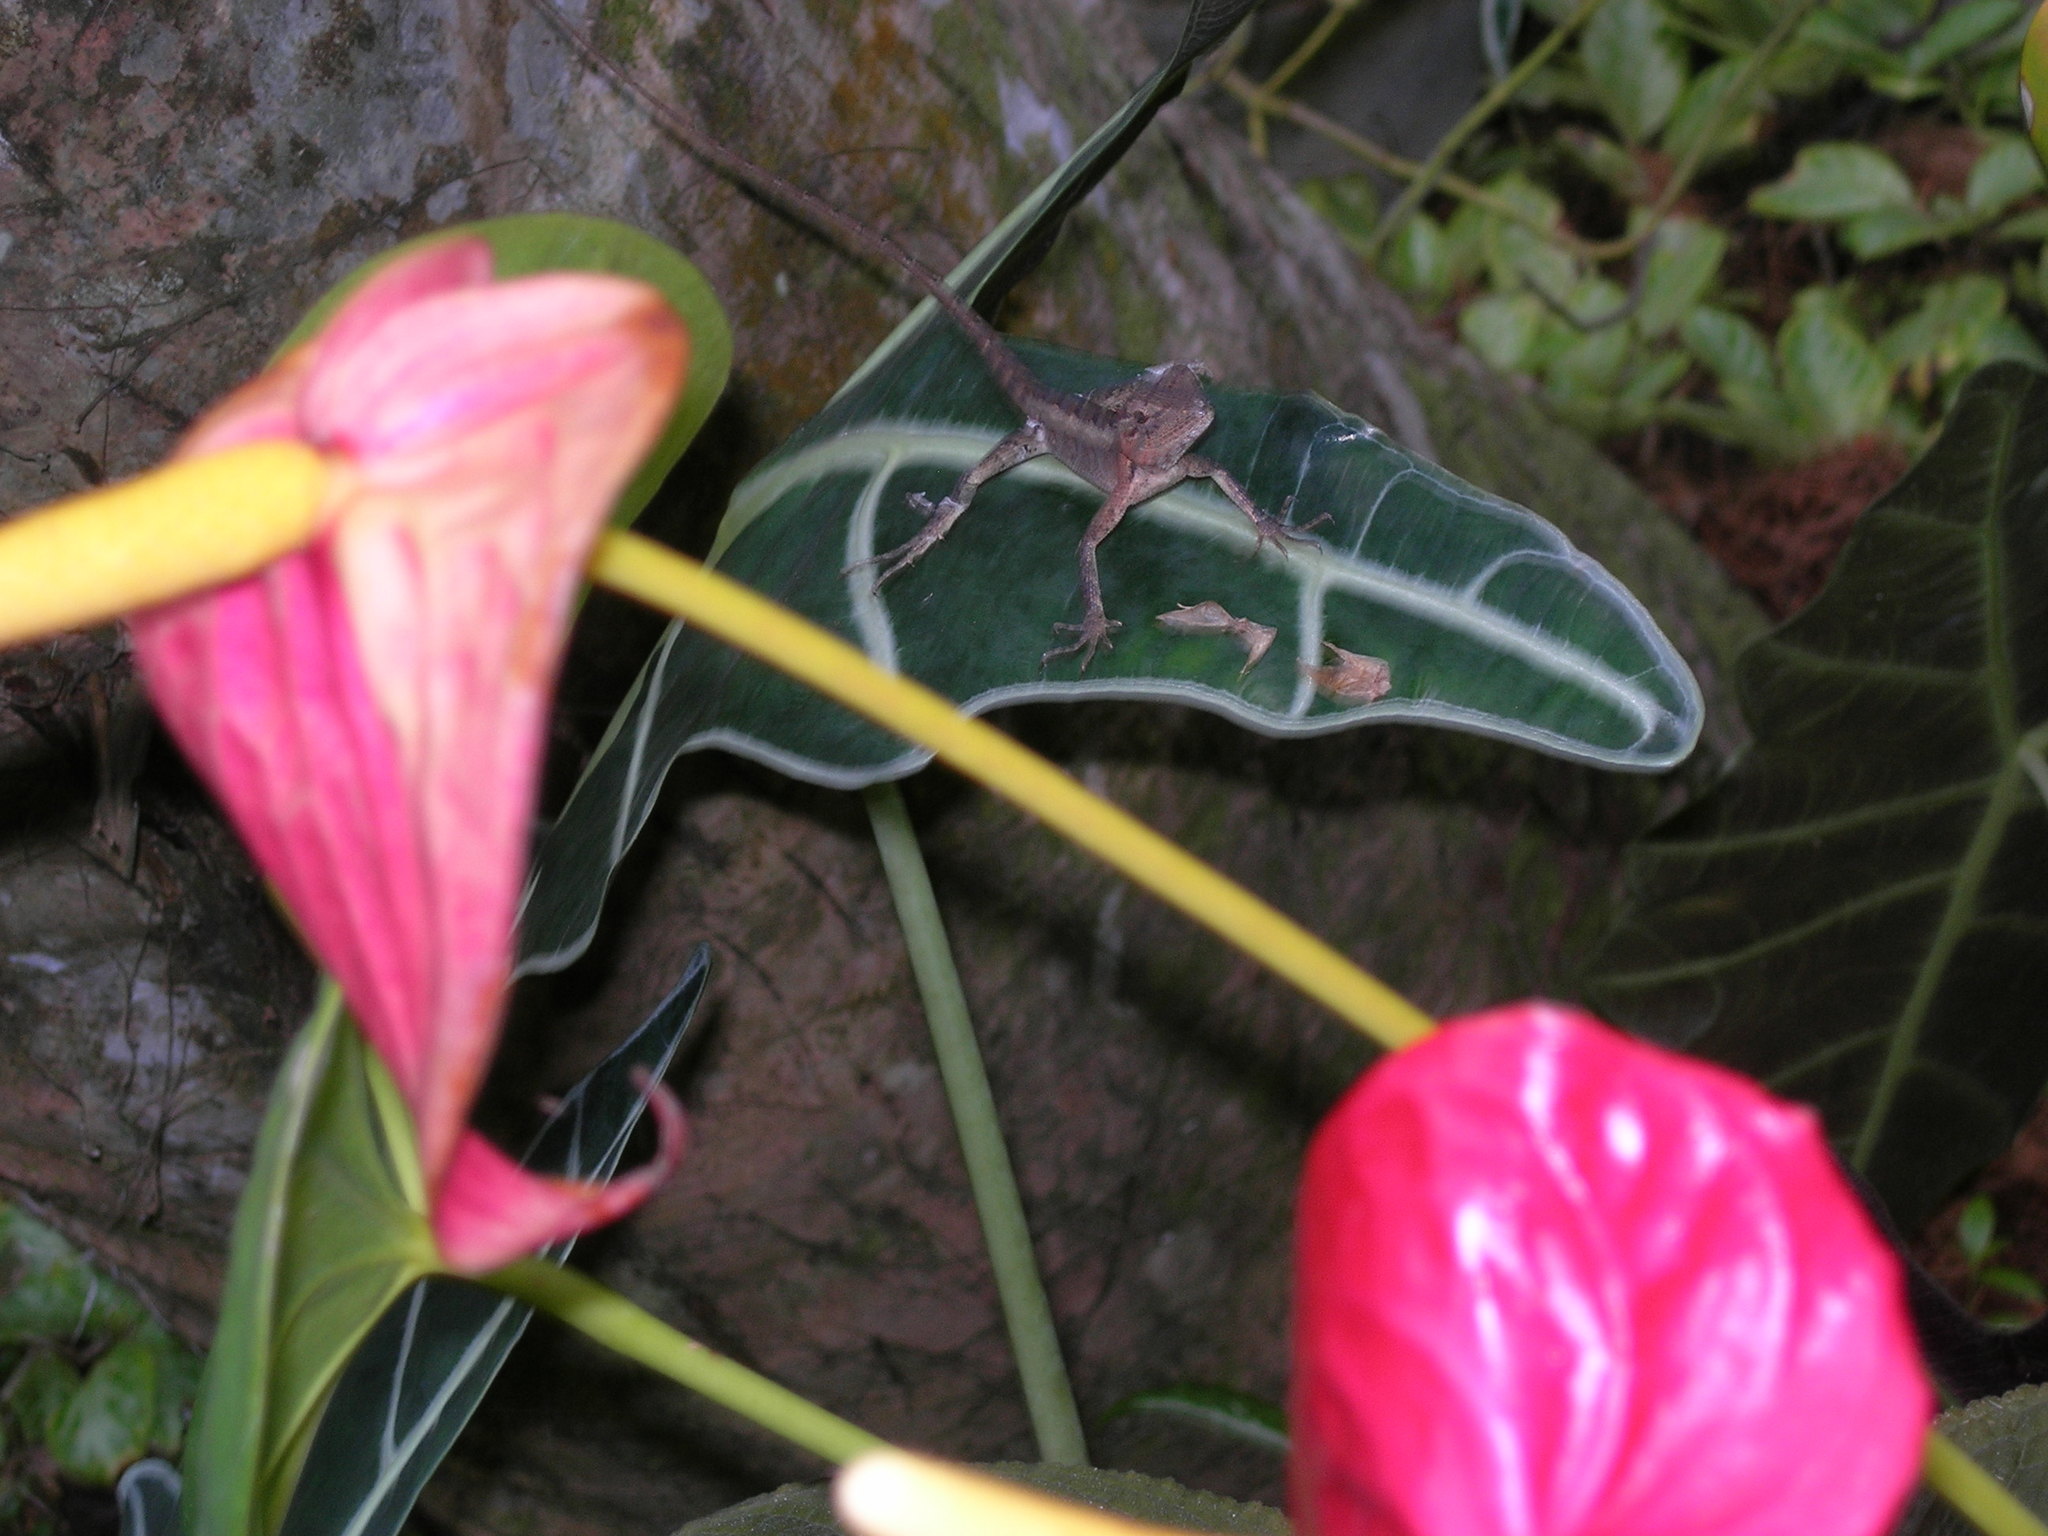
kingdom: Animalia
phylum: Chordata
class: Squamata
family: Agamidae
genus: Calotes
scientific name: Calotes versicolor
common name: Oriental garden lizard
